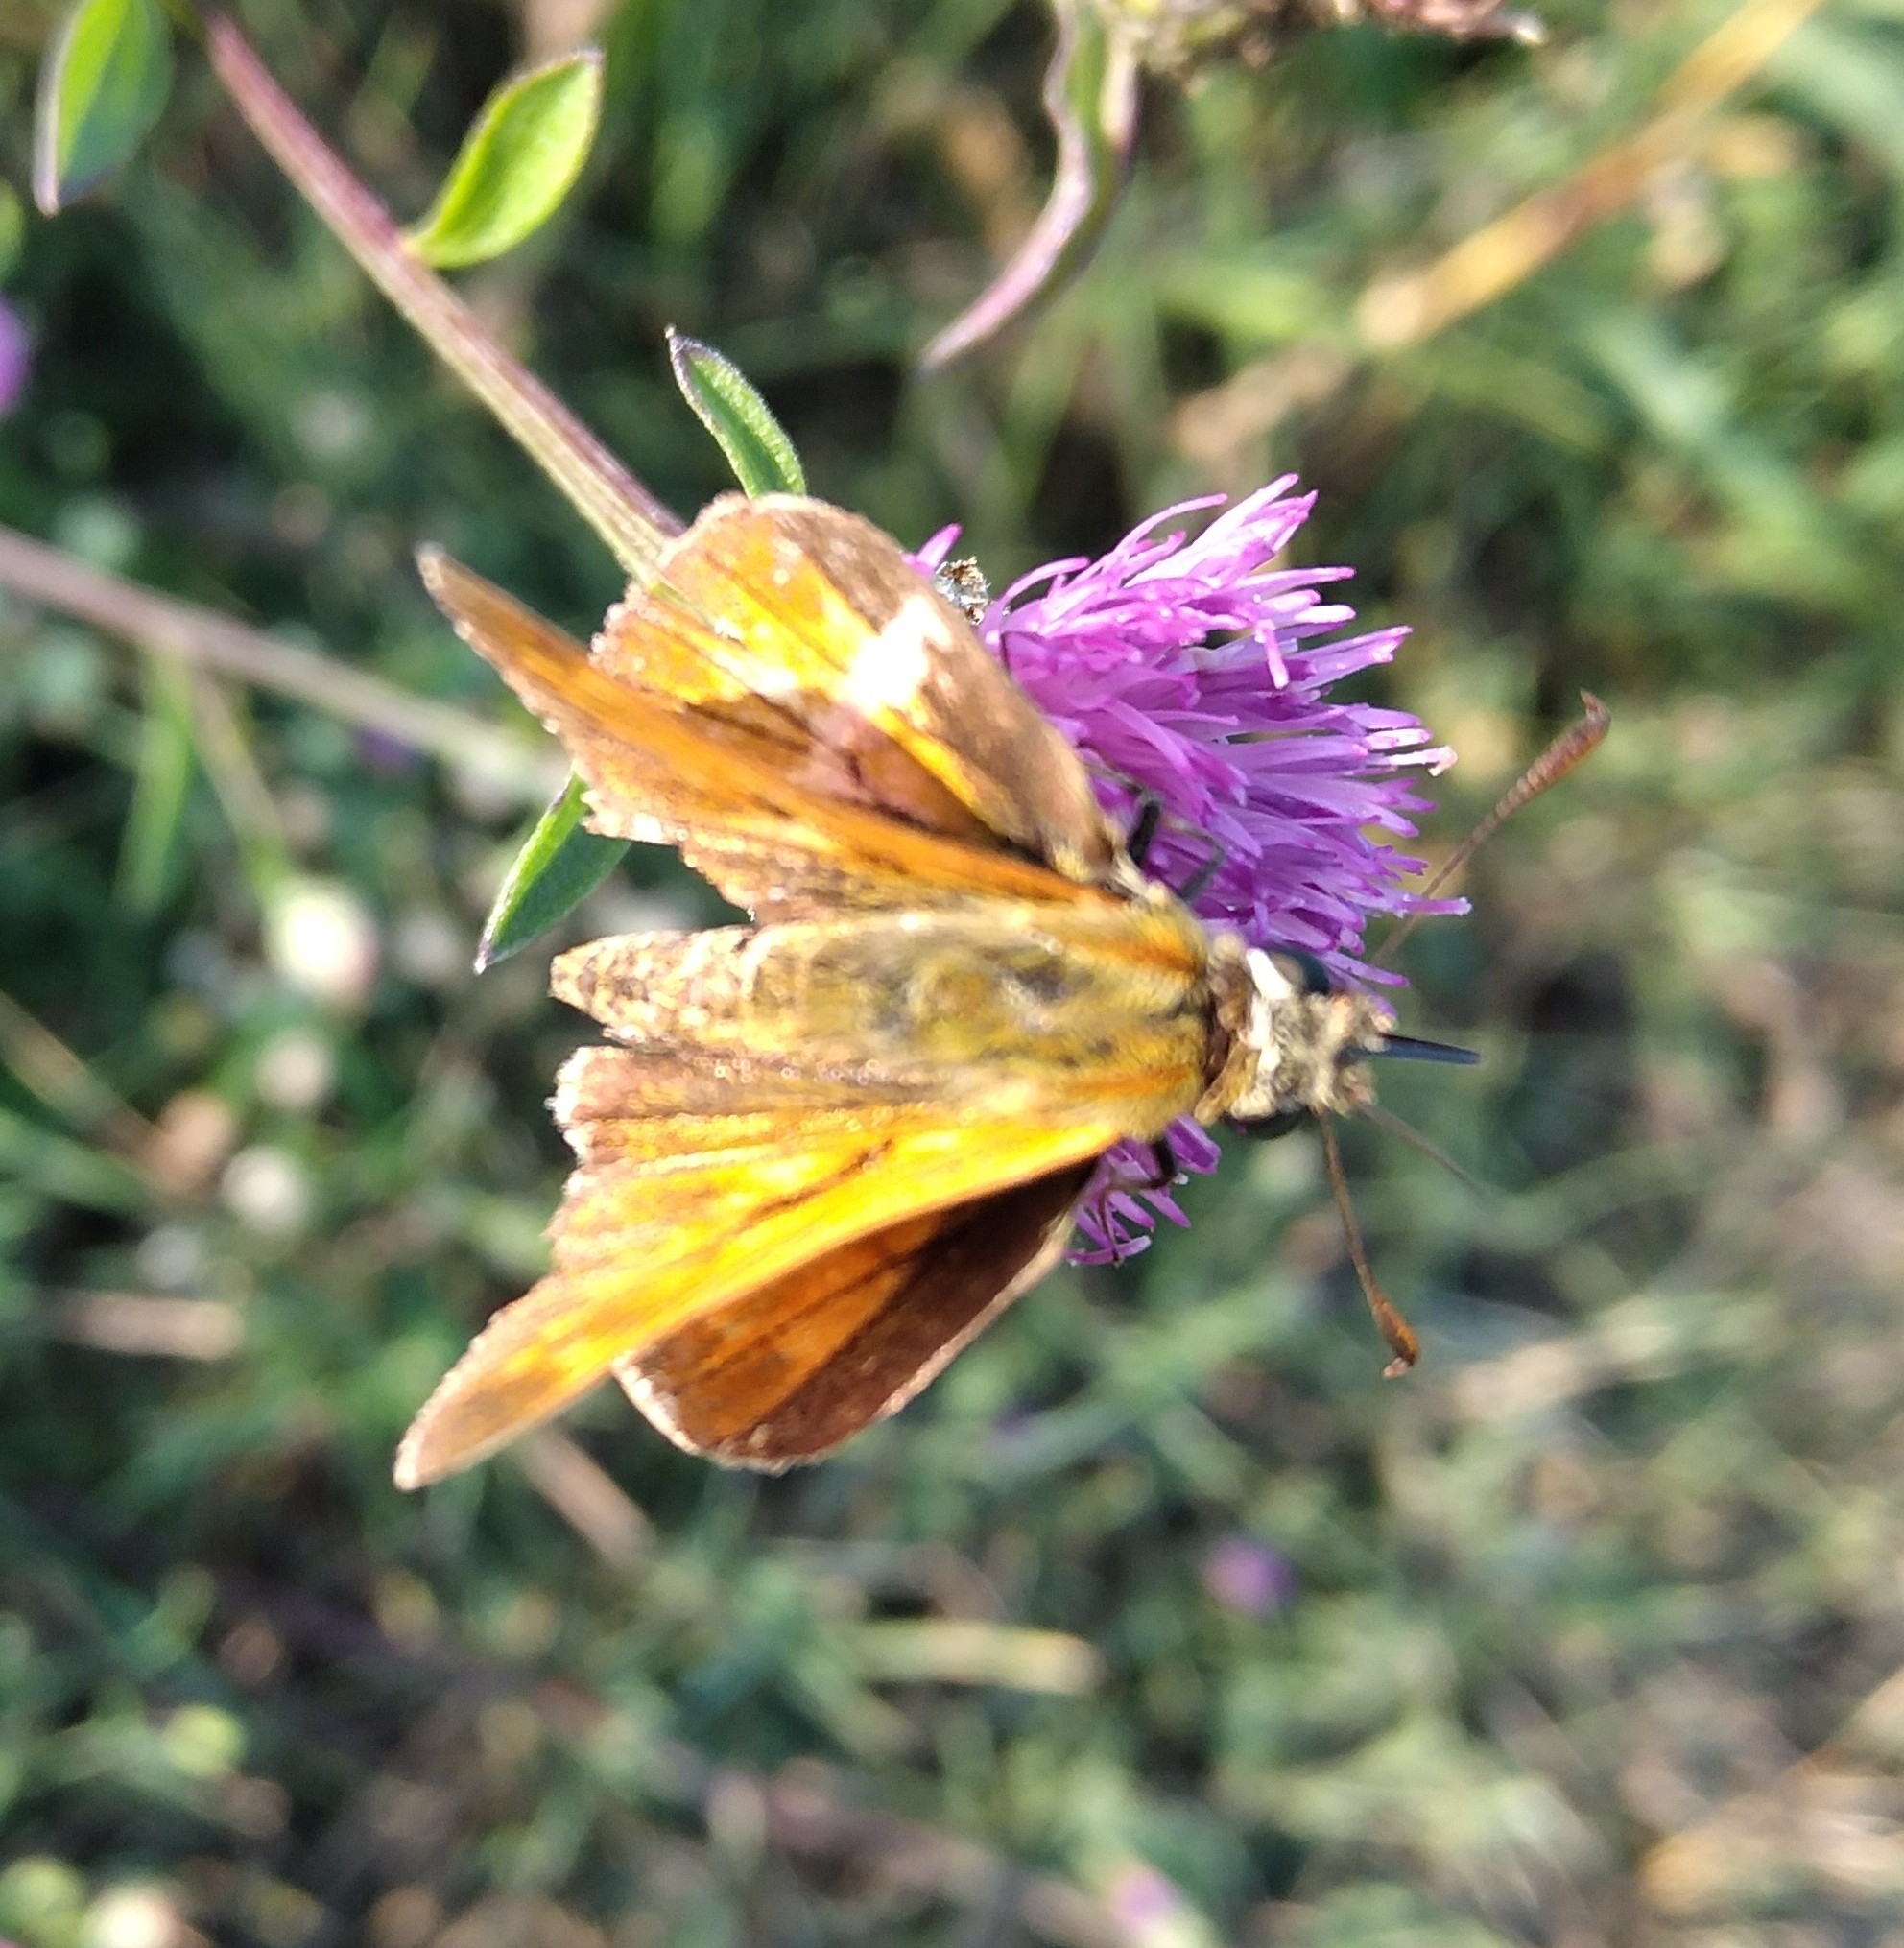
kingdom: Animalia
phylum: Arthropoda
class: Insecta
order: Lepidoptera
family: Hesperiidae
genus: Ochlodes
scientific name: Ochlodes venata
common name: Large skipper
